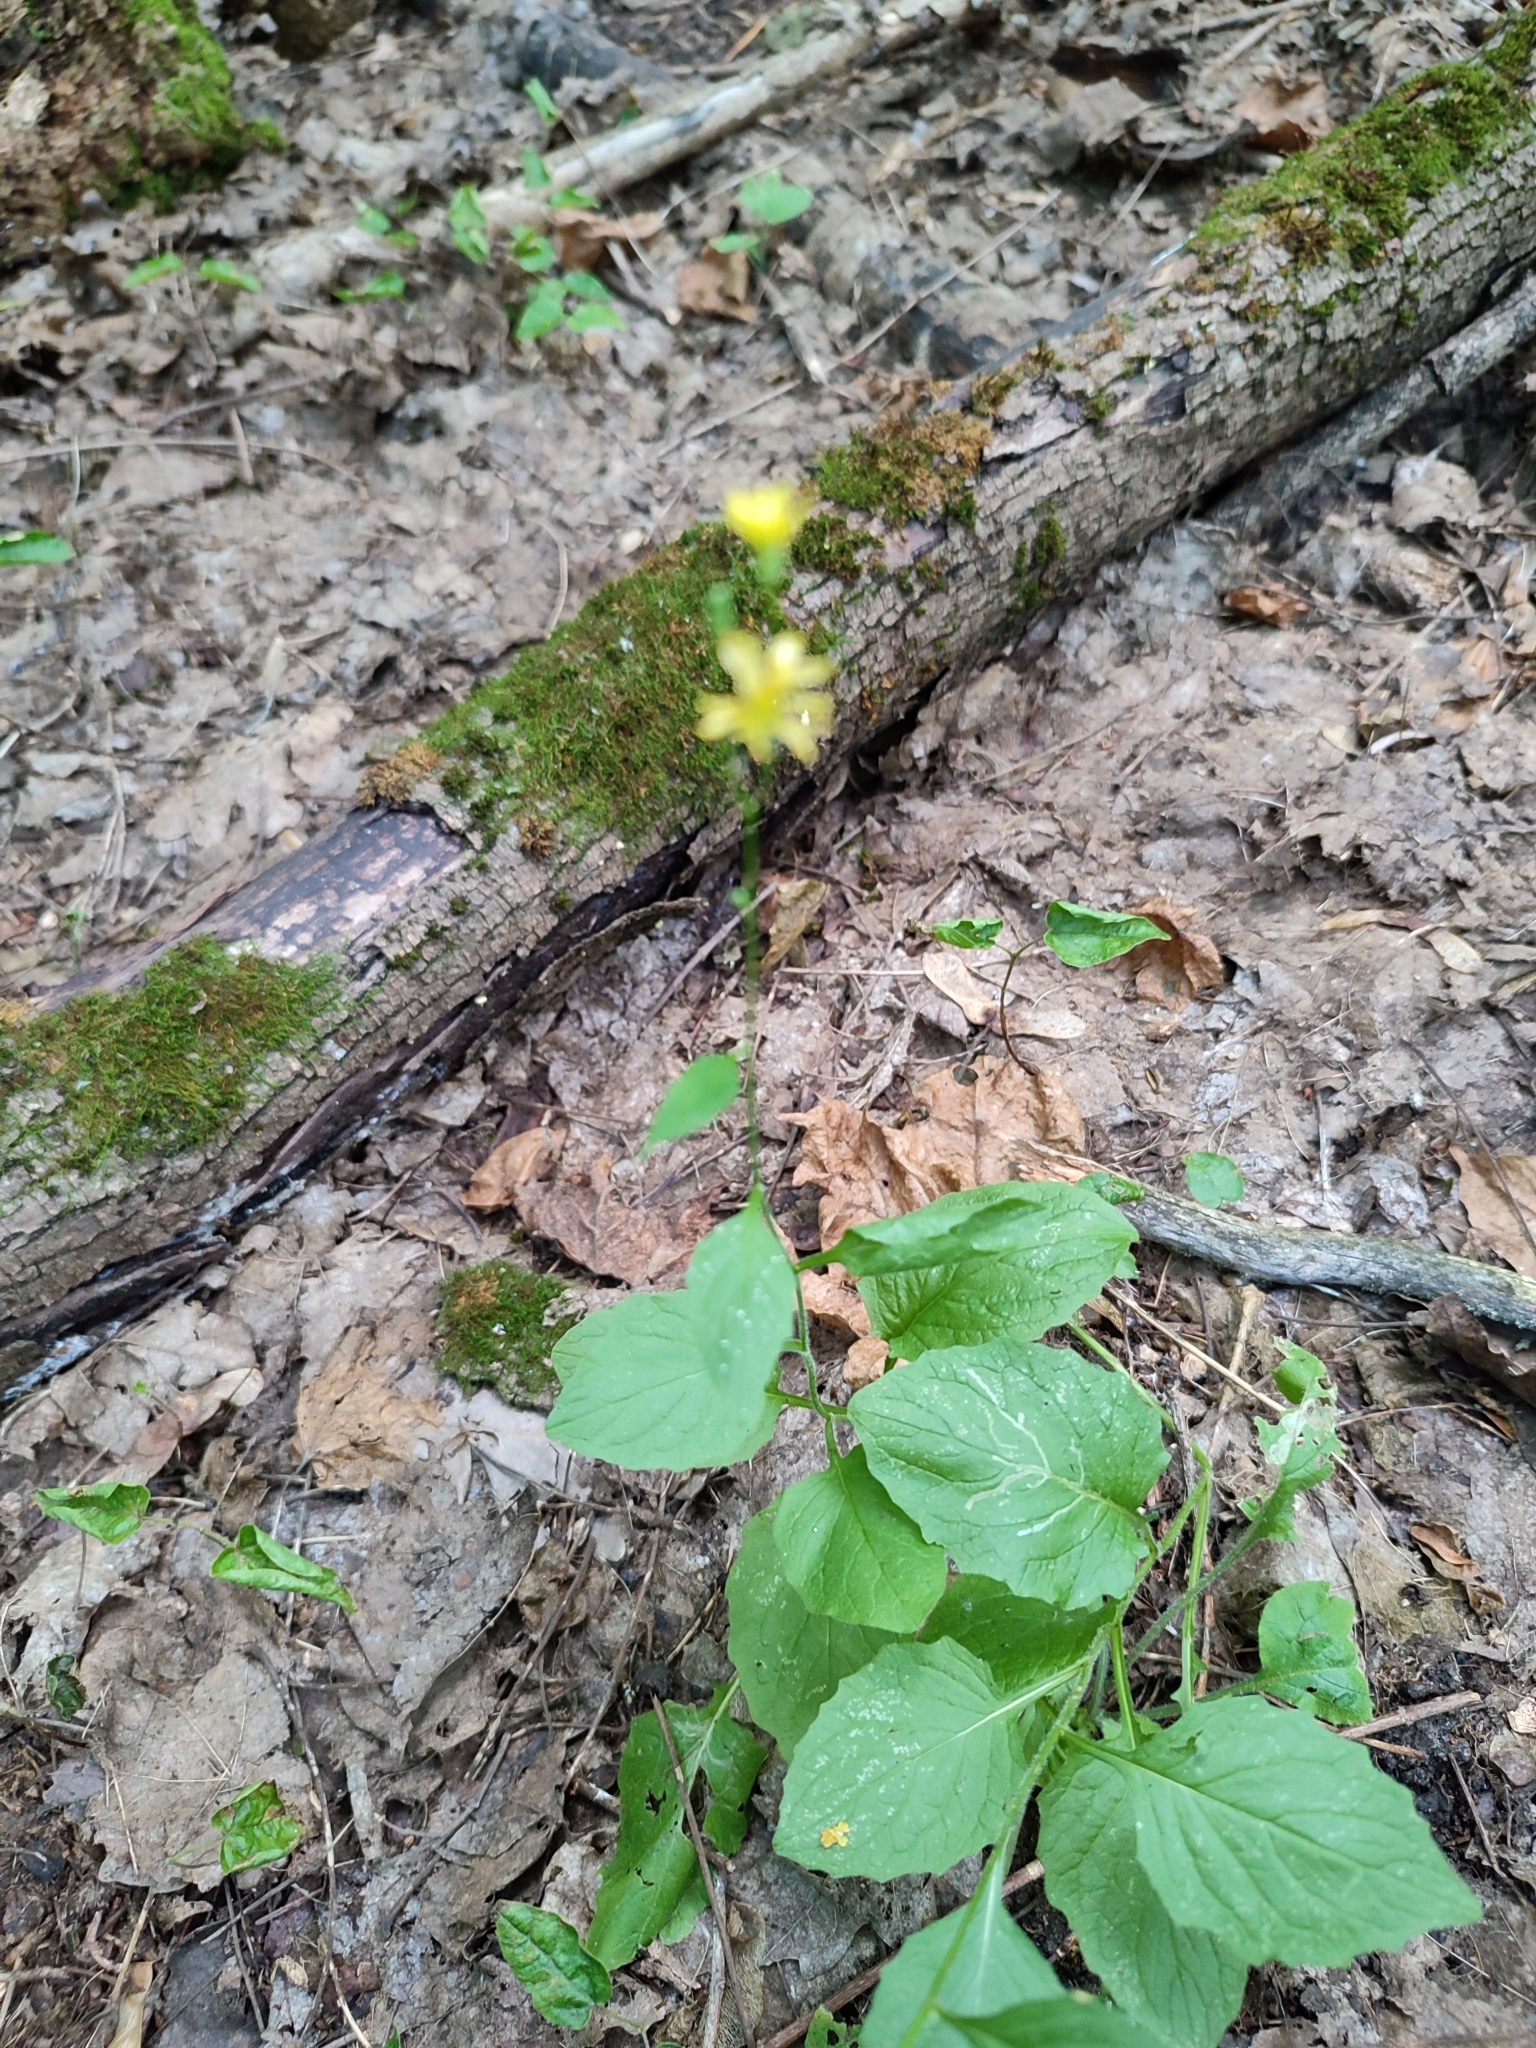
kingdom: Plantae
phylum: Tracheophyta
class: Magnoliopsida
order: Asterales
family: Asteraceae
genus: Lapsana
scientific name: Lapsana communis
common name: Nipplewort
